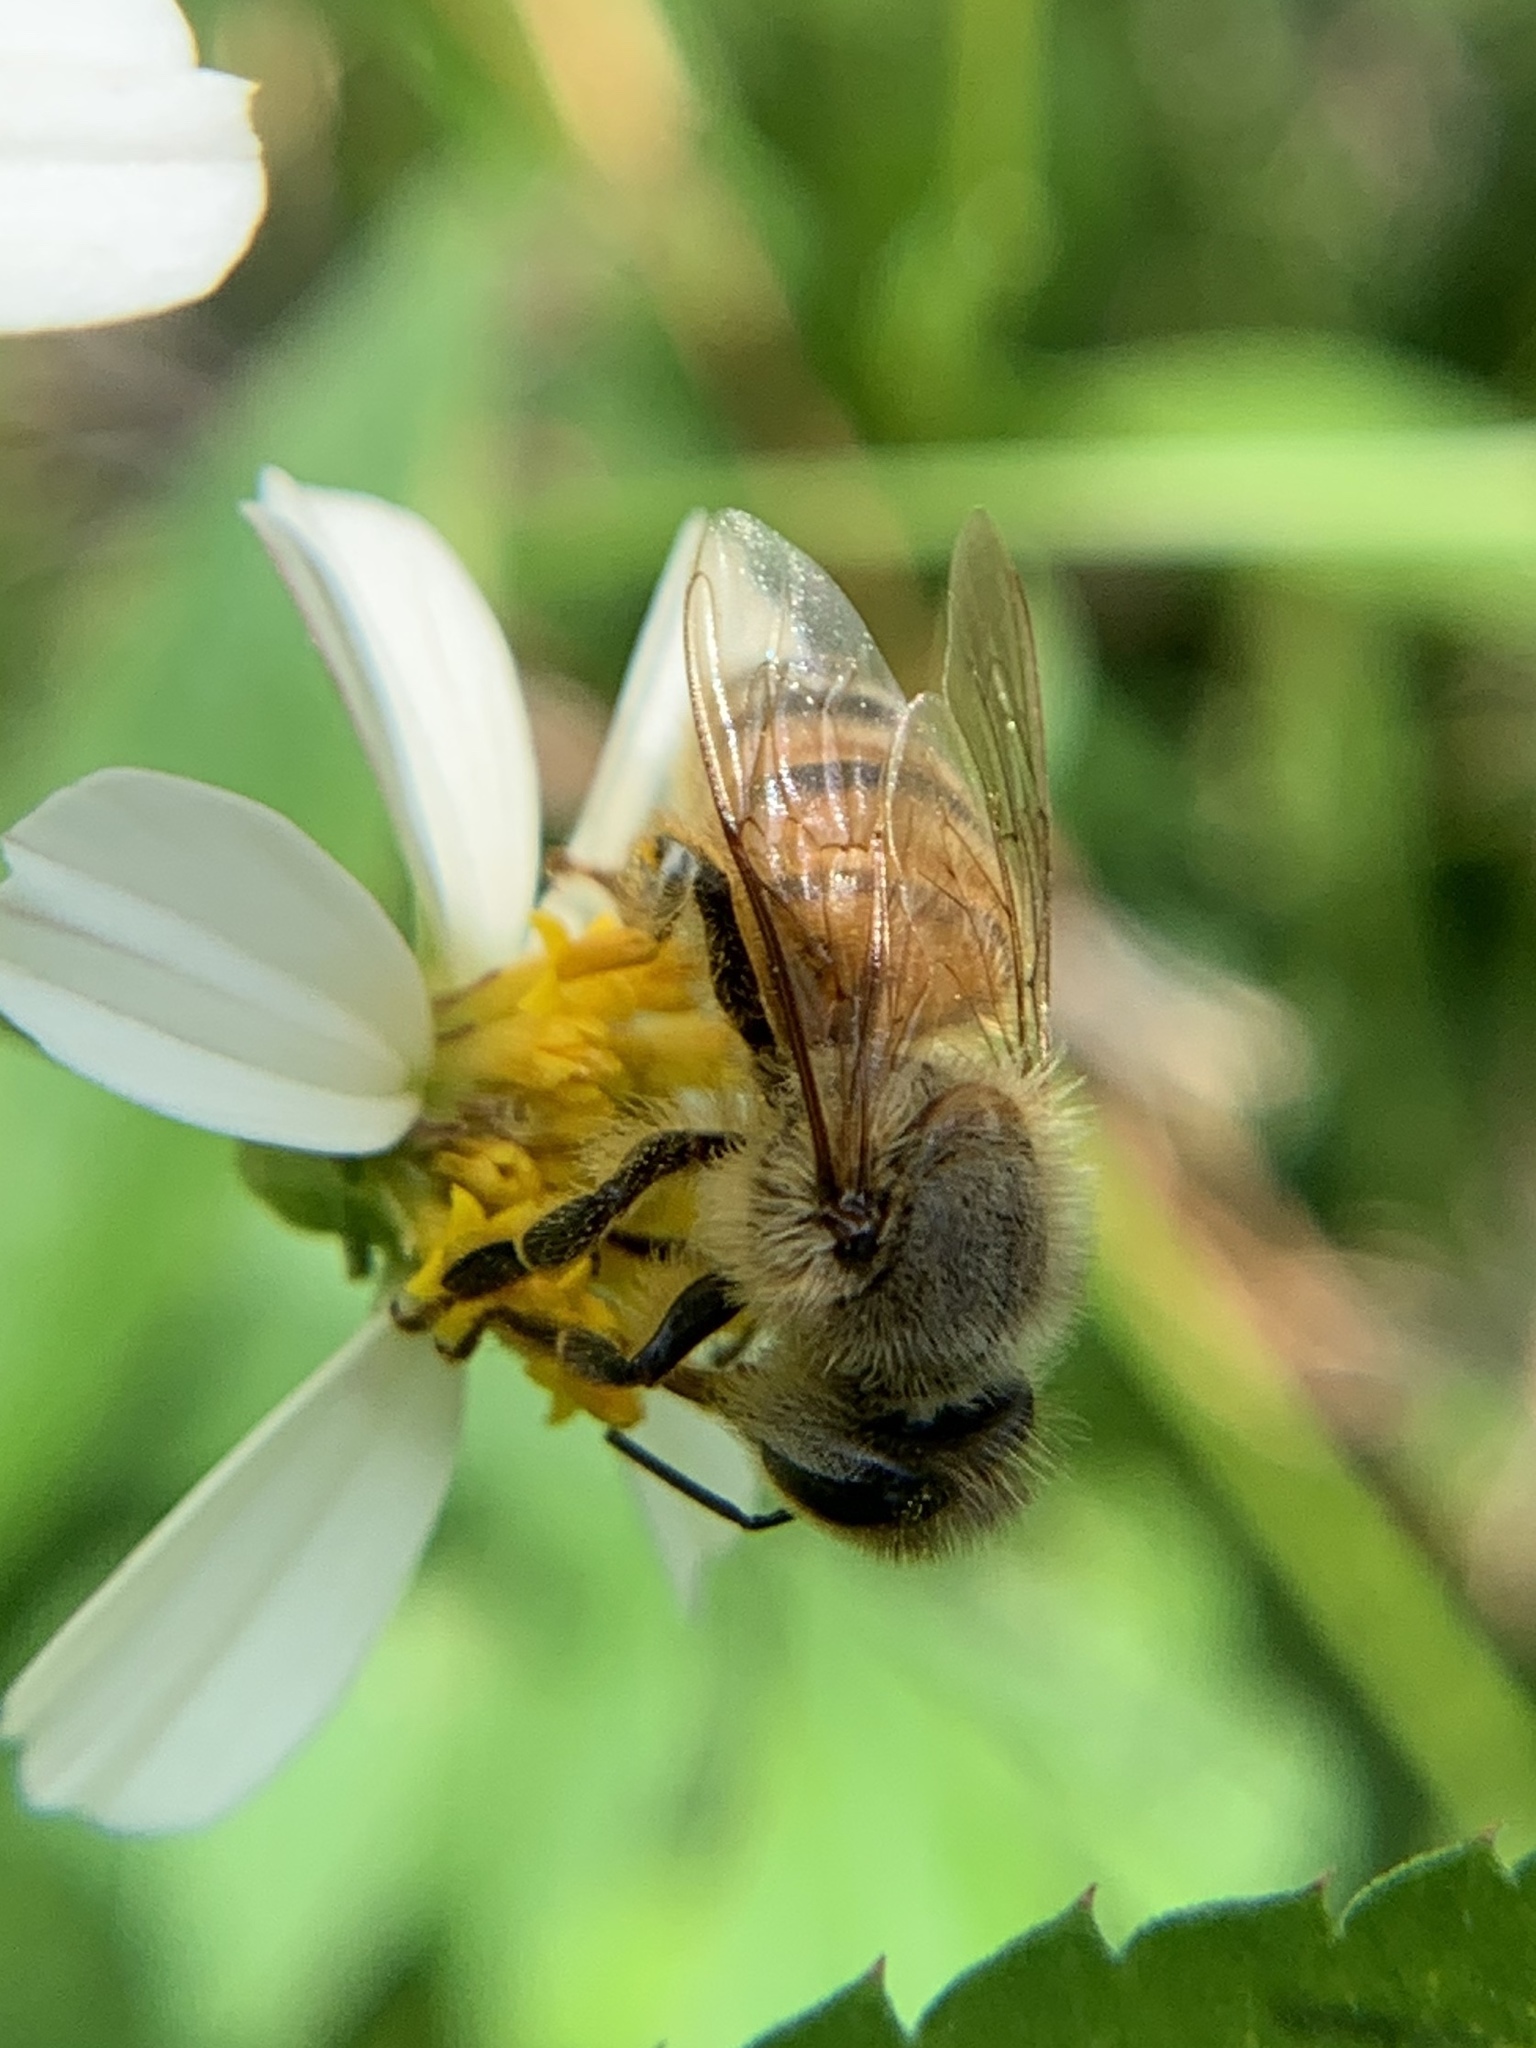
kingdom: Animalia
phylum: Arthropoda
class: Insecta
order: Hymenoptera
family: Apidae
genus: Apis
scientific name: Apis mellifera
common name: Honey bee
